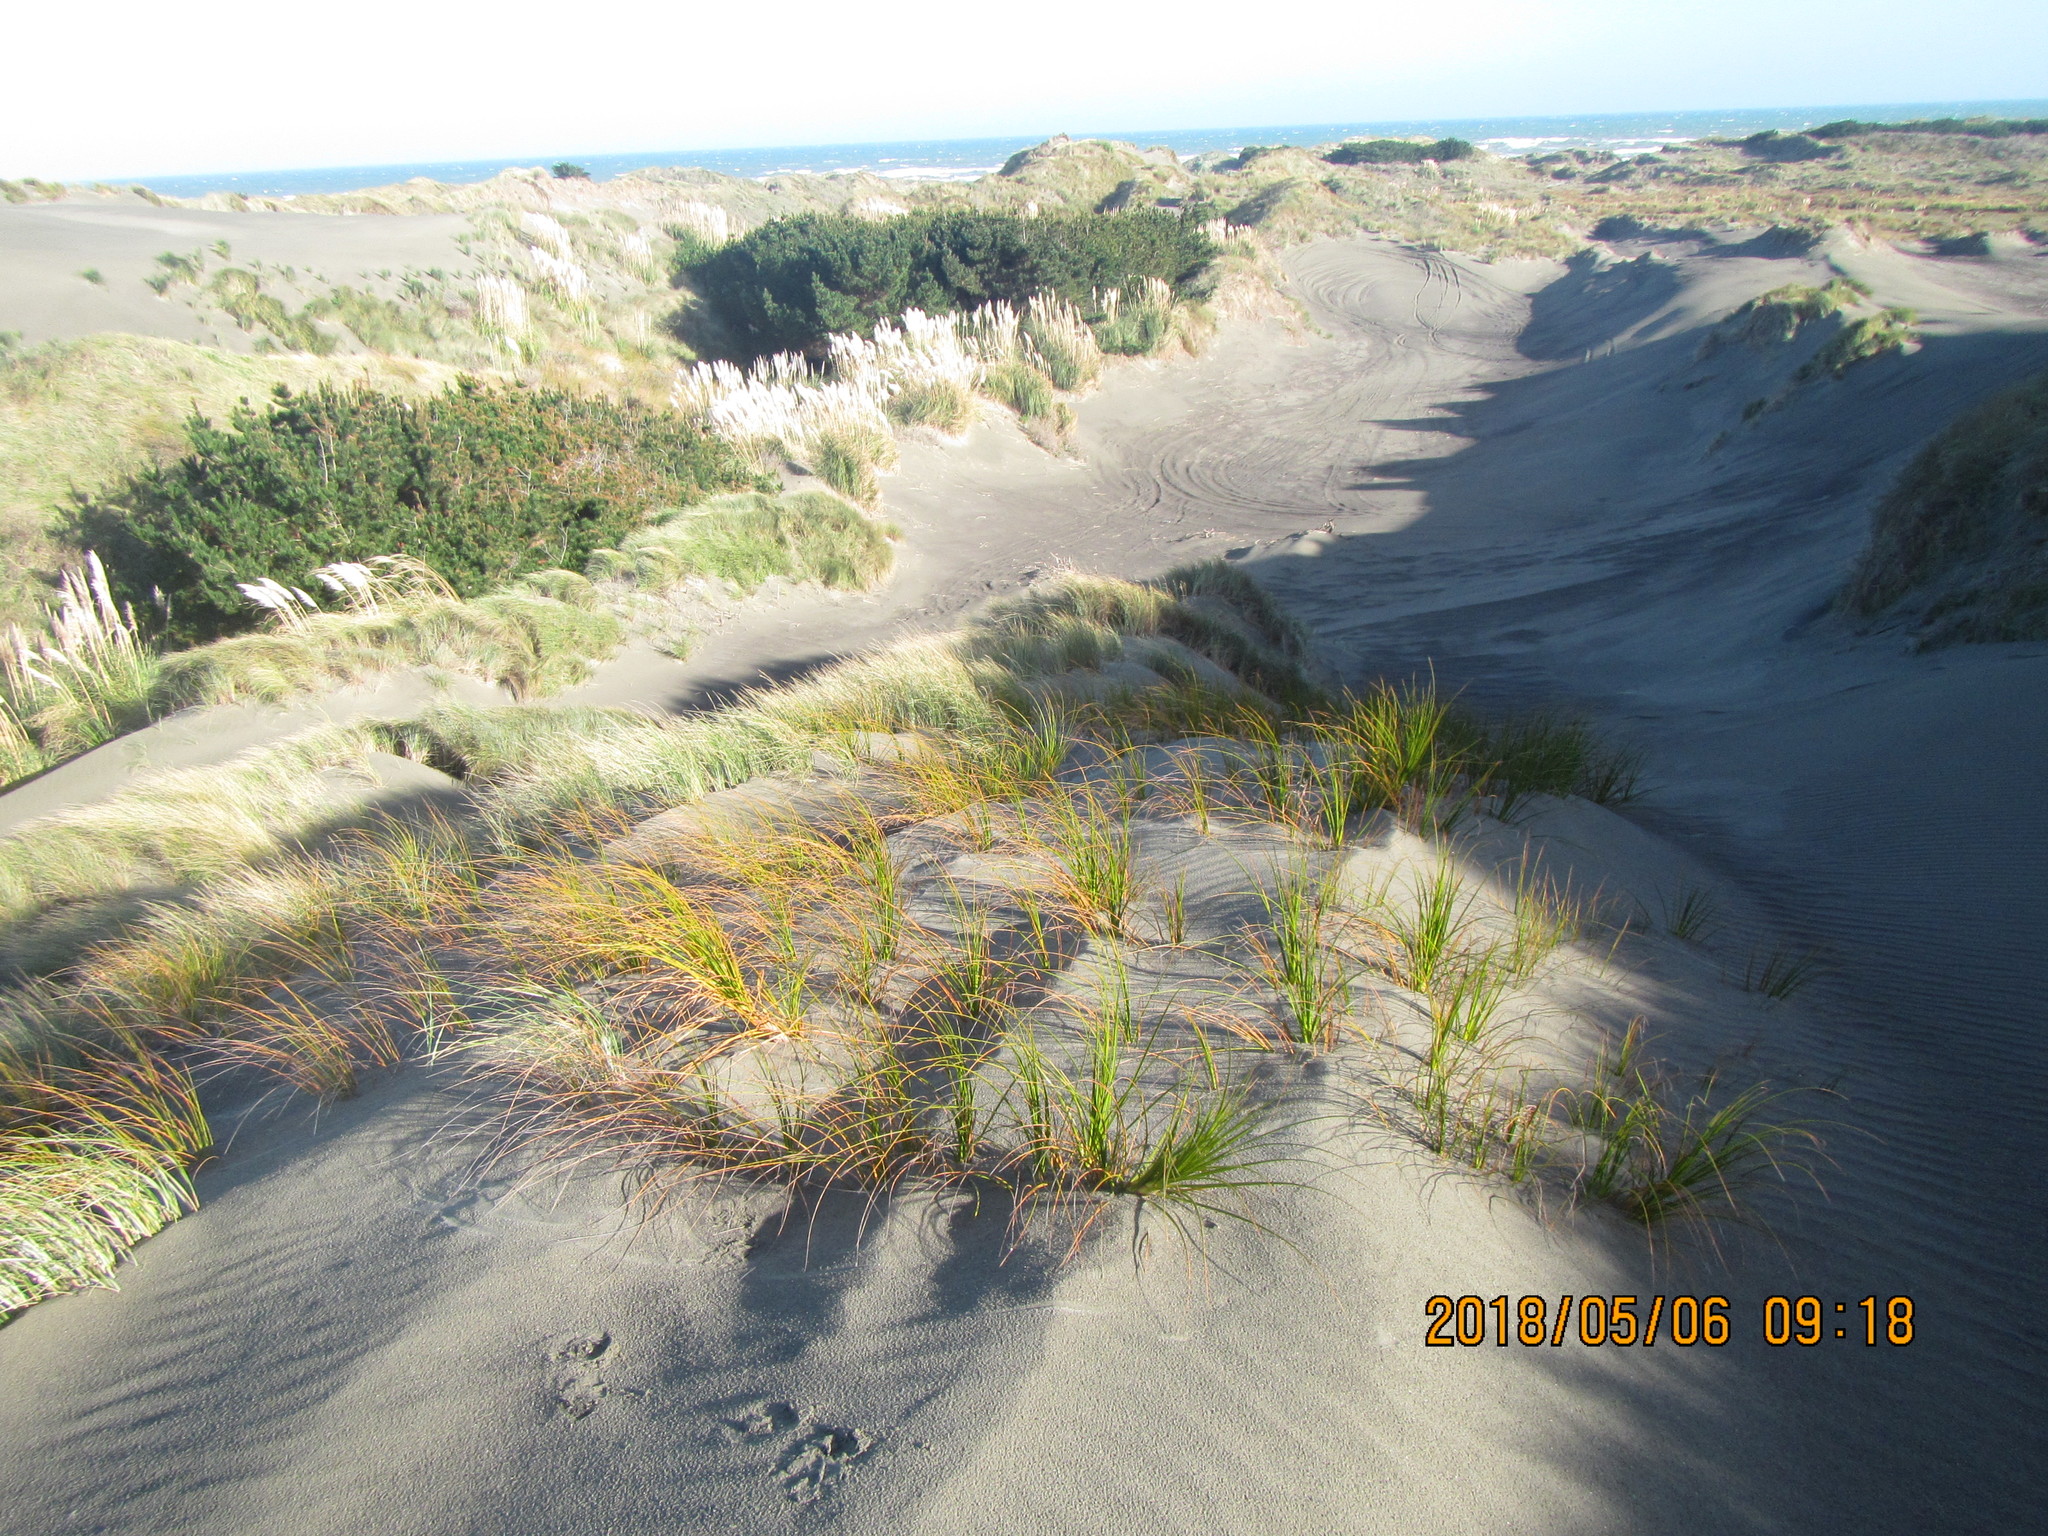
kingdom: Plantae
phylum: Tracheophyta
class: Liliopsida
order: Poales
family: Cyperaceae
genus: Ficinia
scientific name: Ficinia spiralis
